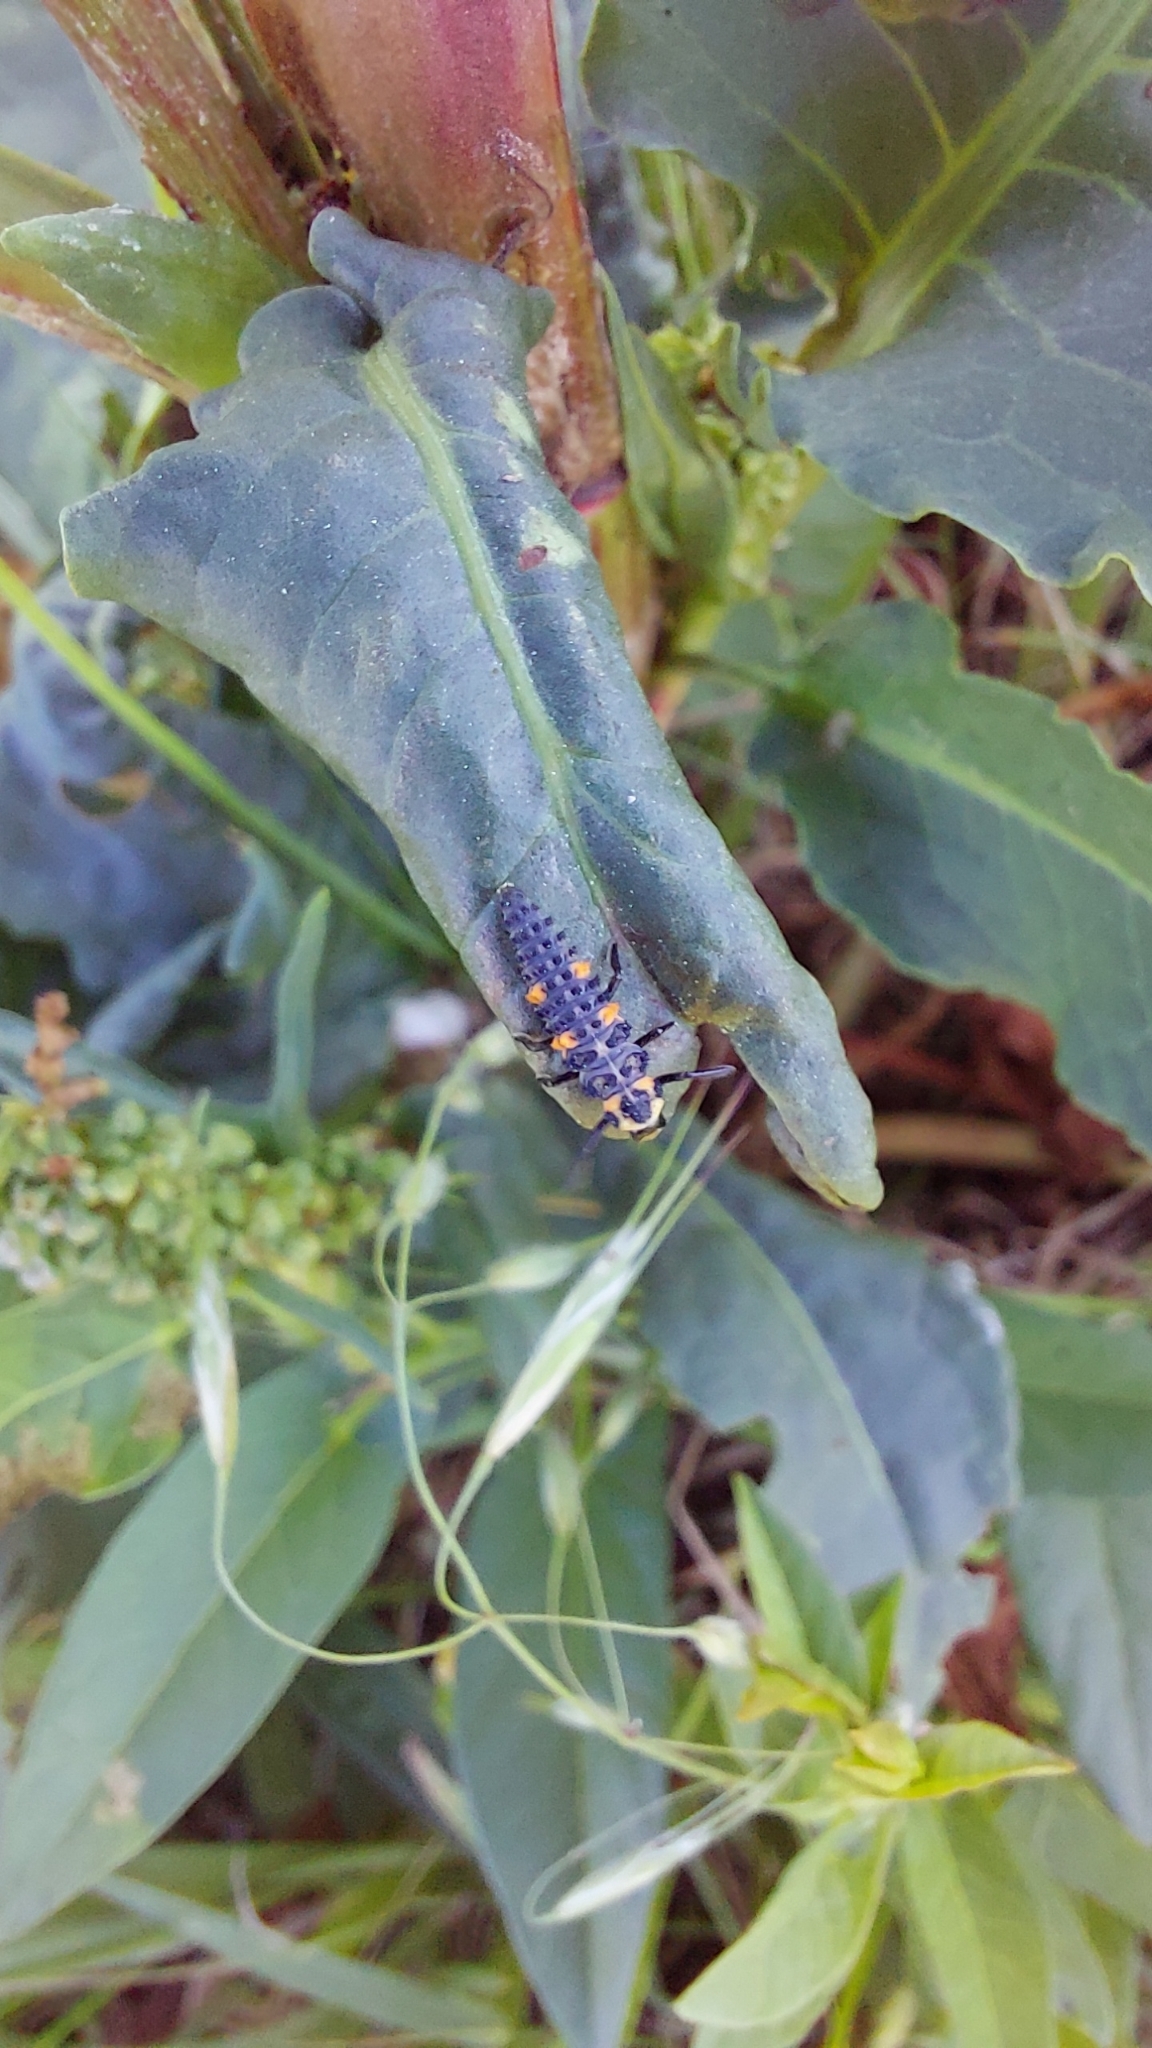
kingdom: Animalia
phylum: Arthropoda
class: Insecta
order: Coleoptera
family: Coccinellidae
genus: Coccinella
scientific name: Coccinella septempunctata
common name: Sevenspotted lady beetle
